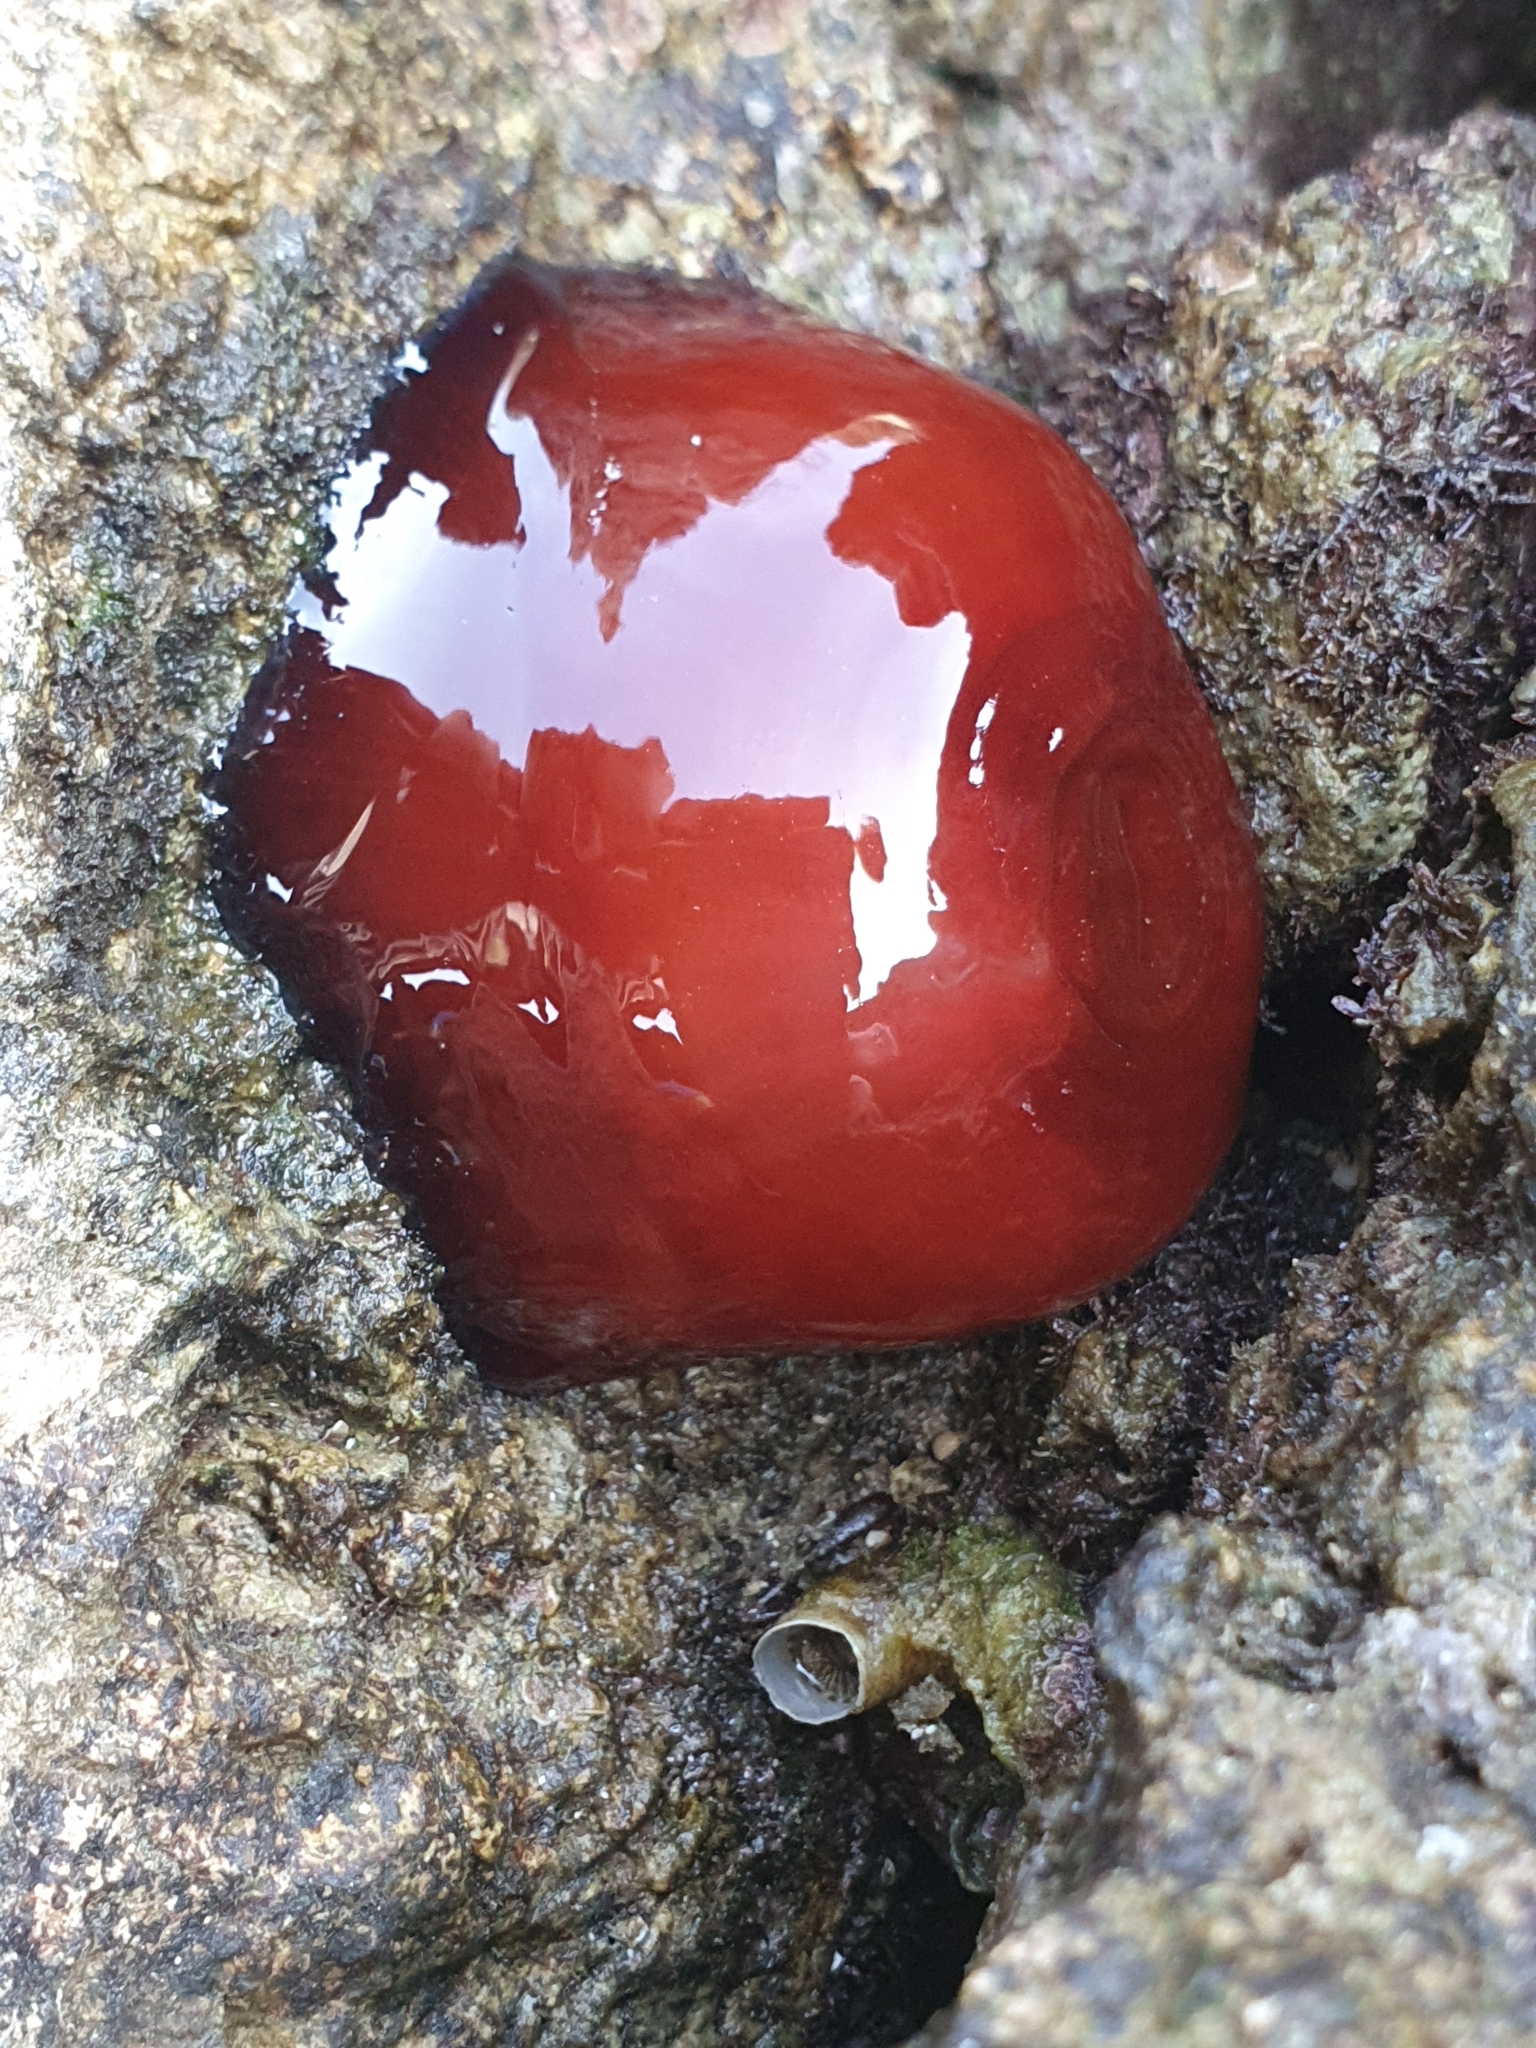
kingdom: Animalia
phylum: Cnidaria
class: Anthozoa
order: Actiniaria
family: Actiniidae
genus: Actinia
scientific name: Actinia mediterranea
